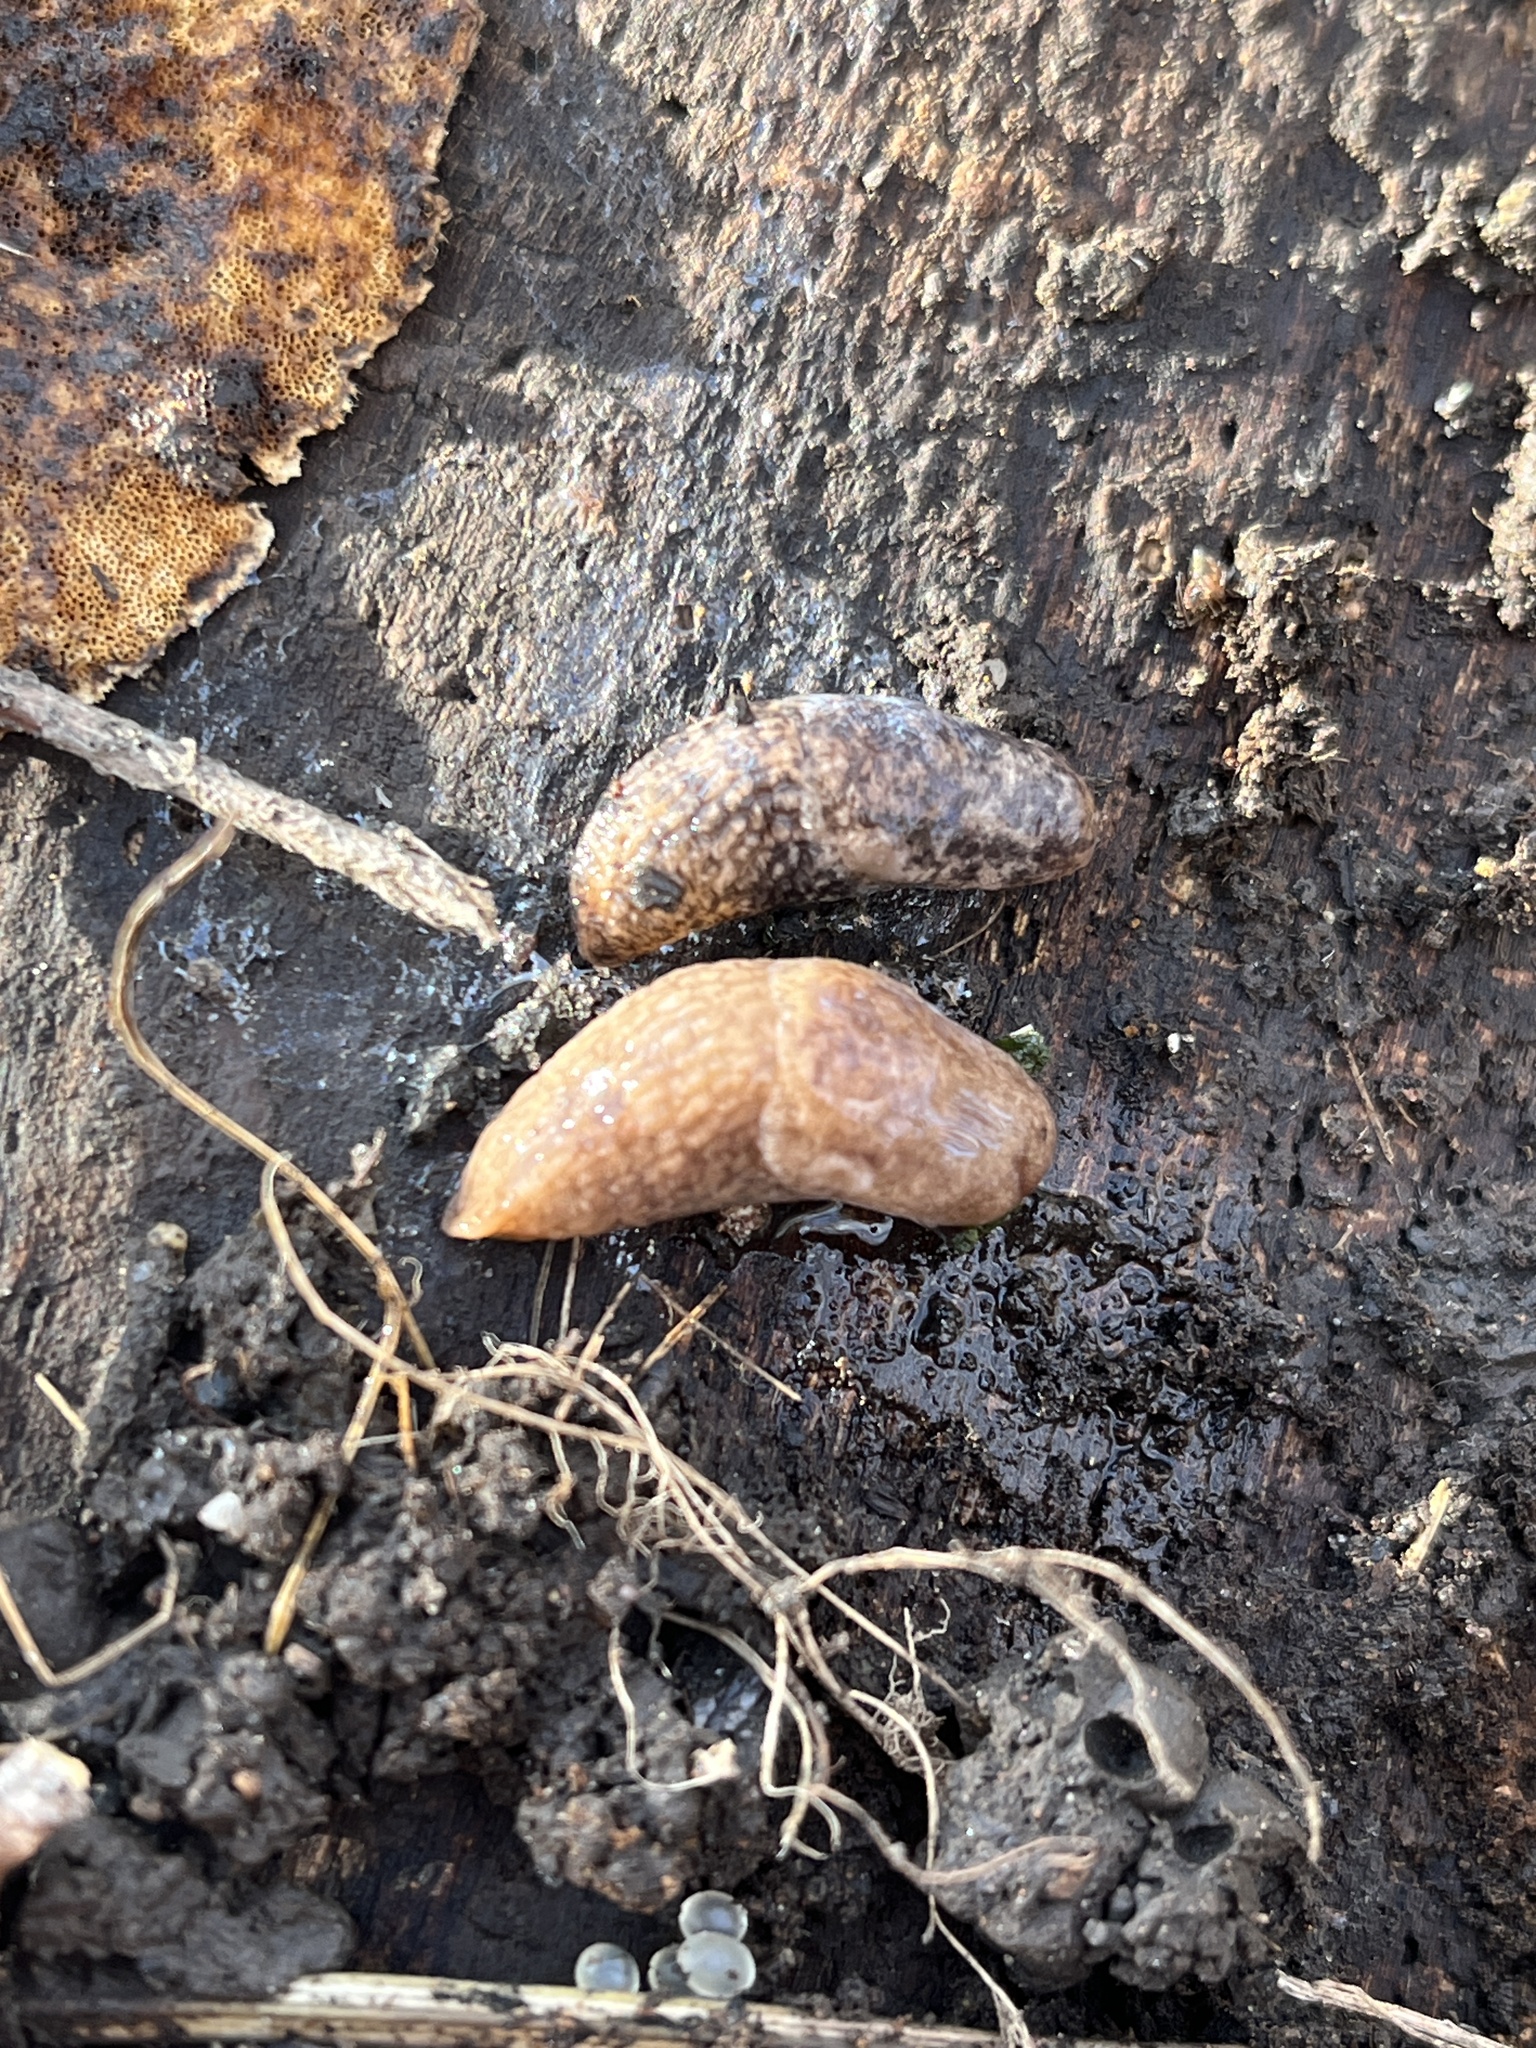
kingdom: Animalia
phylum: Mollusca
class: Gastropoda
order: Stylommatophora
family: Agriolimacidae
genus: Deroceras
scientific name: Deroceras reticulatum
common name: Gray field slug
